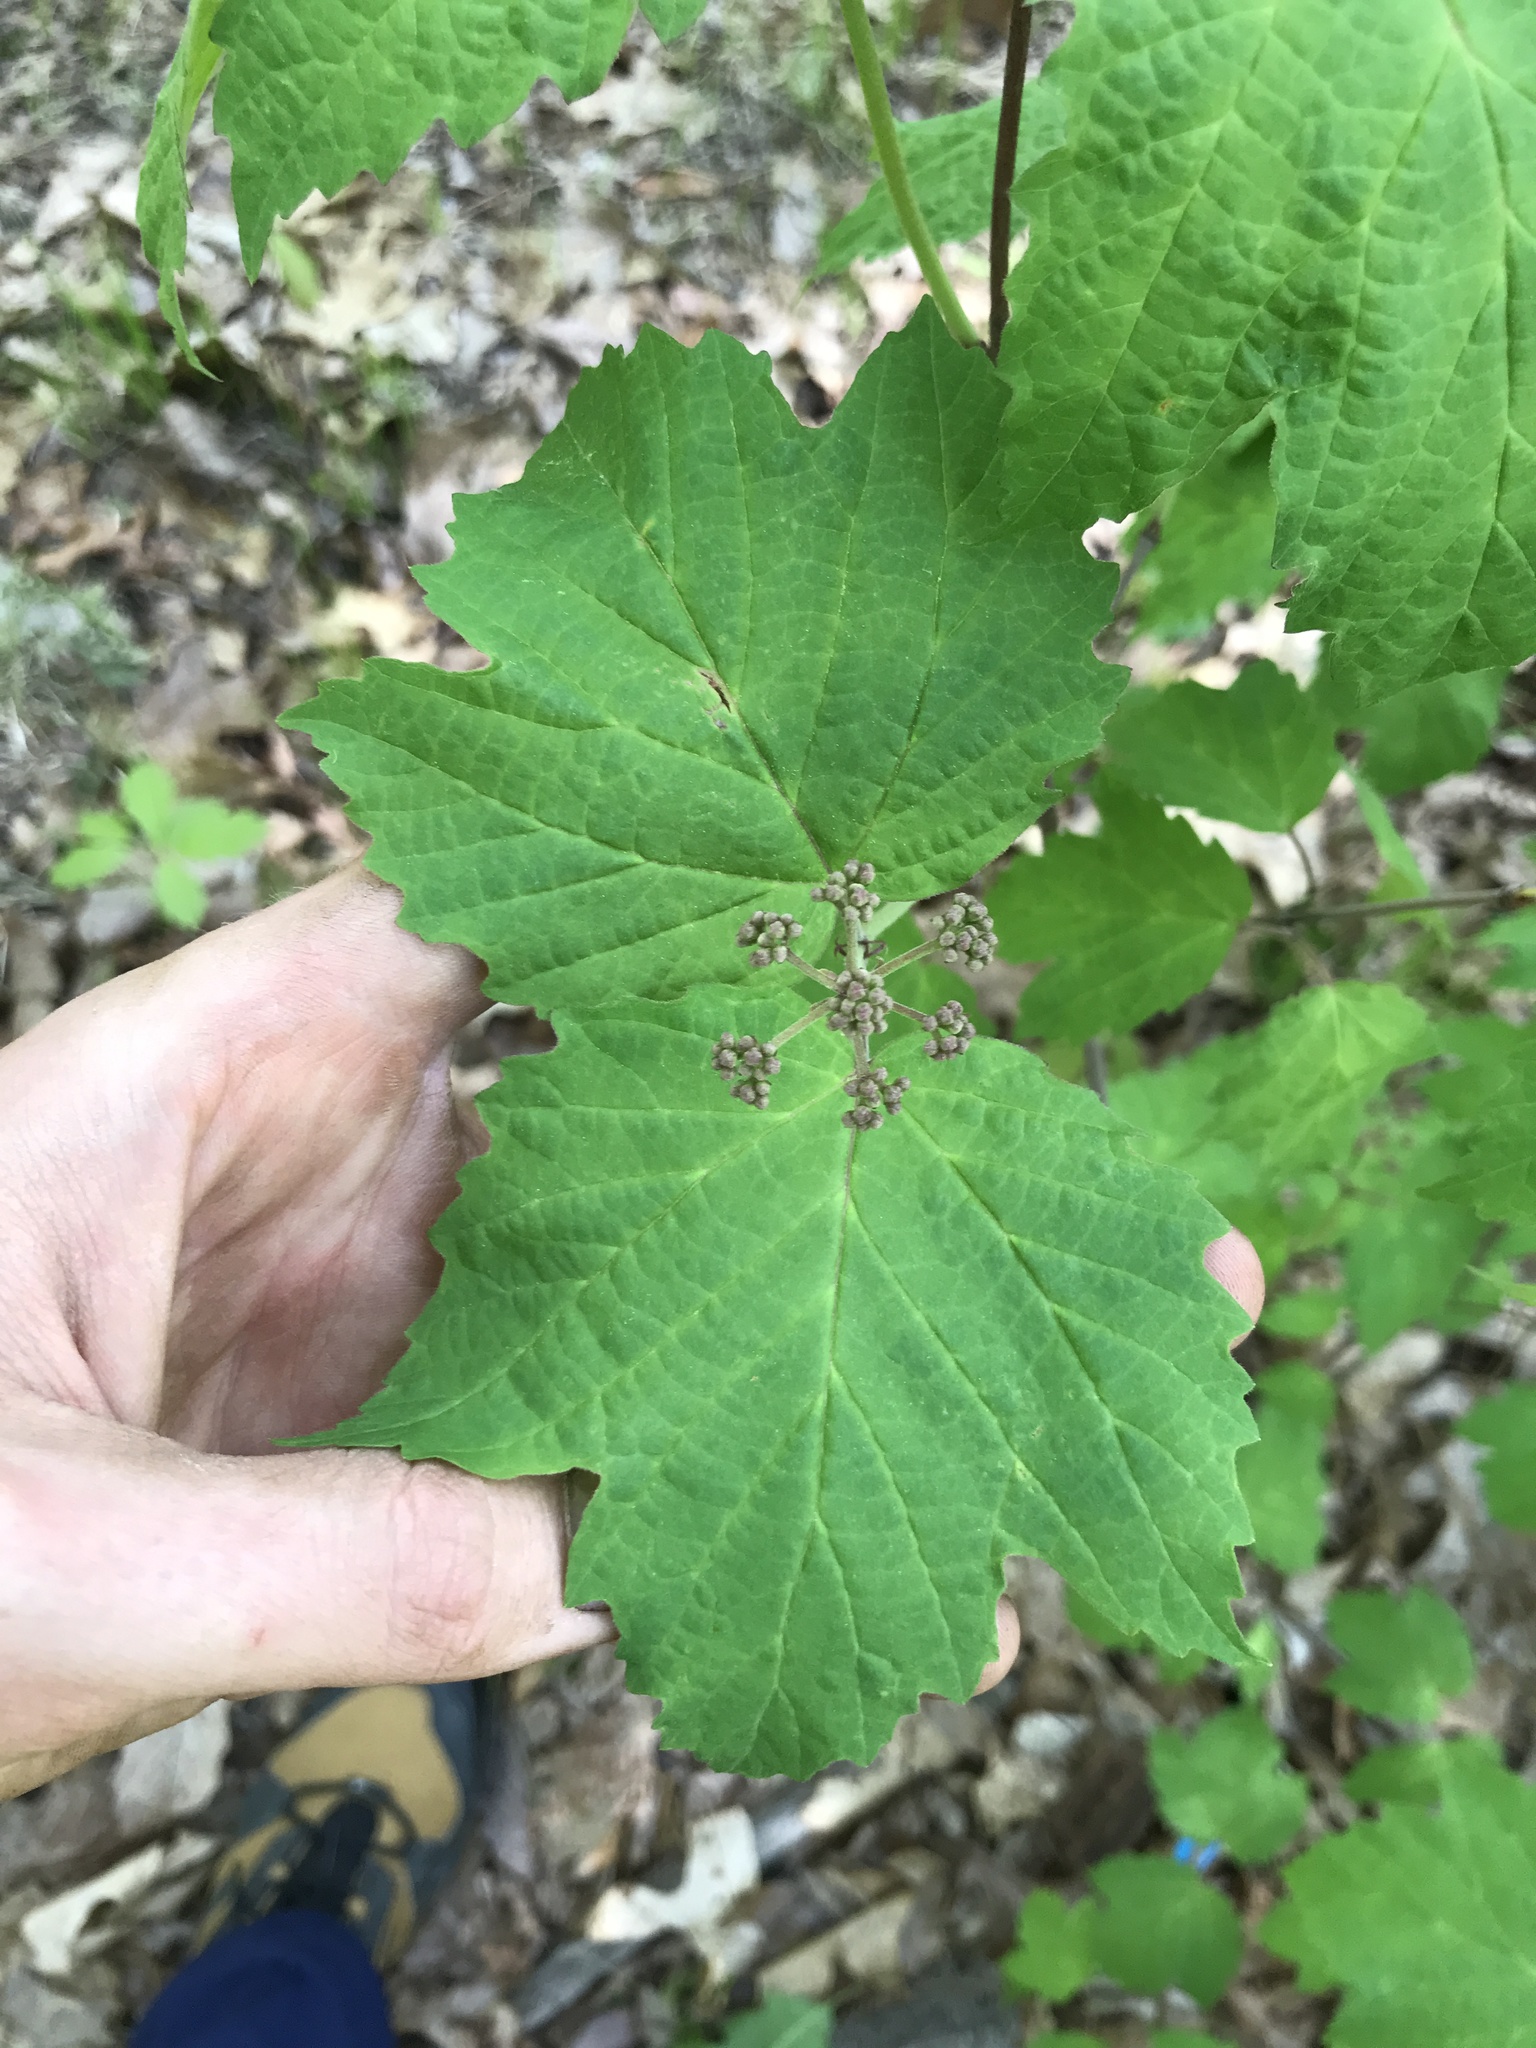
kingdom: Plantae
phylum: Tracheophyta
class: Magnoliopsida
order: Dipsacales
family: Viburnaceae
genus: Viburnum
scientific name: Viburnum acerifolium
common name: Dockmackie
